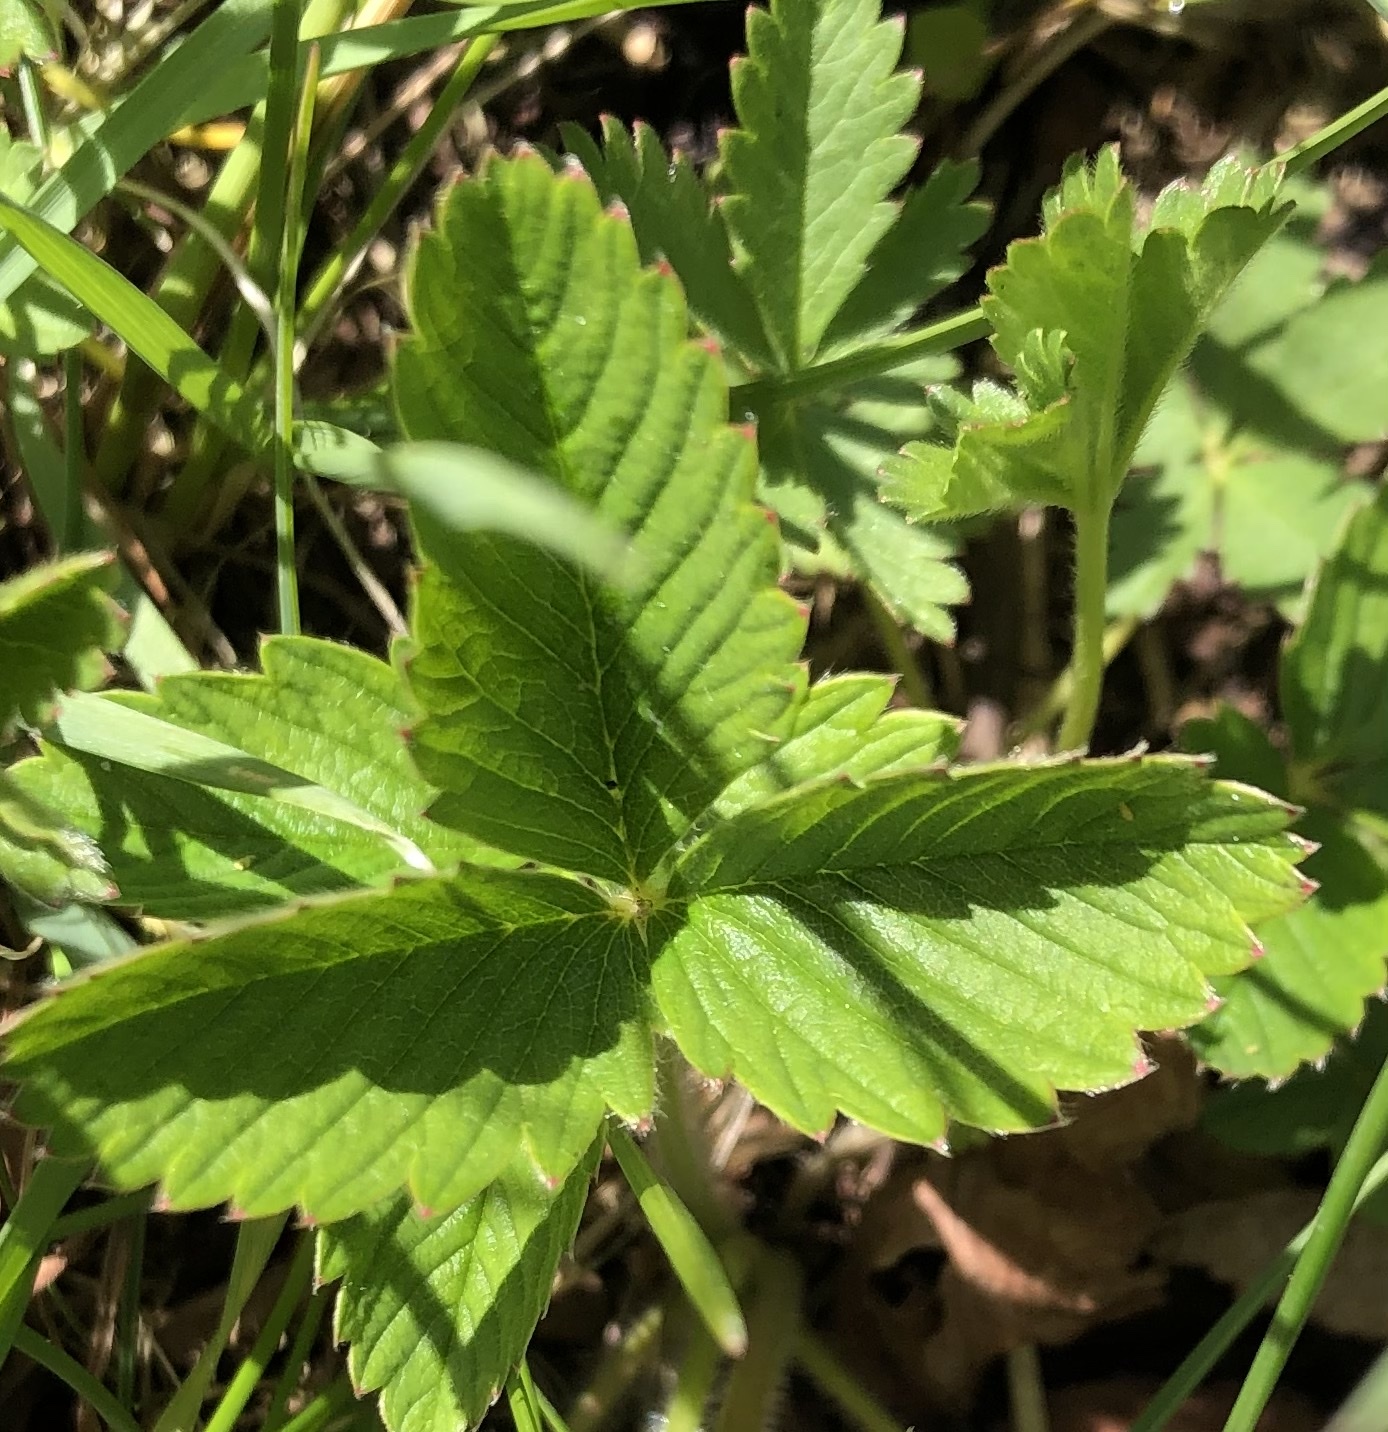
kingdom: Plantae
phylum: Tracheophyta
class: Magnoliopsida
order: Rosales
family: Rosaceae
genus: Fragaria
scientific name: Fragaria viridis
